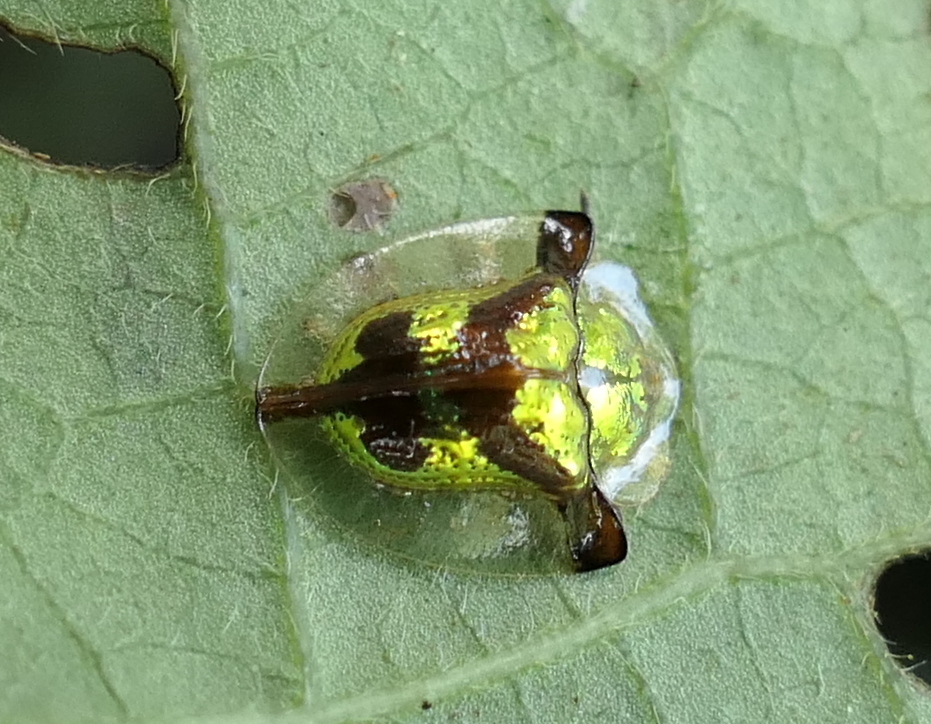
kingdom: Animalia
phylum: Arthropoda
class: Insecta
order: Coleoptera
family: Chrysomelidae
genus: Deloyala
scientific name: Deloyala cruciata
